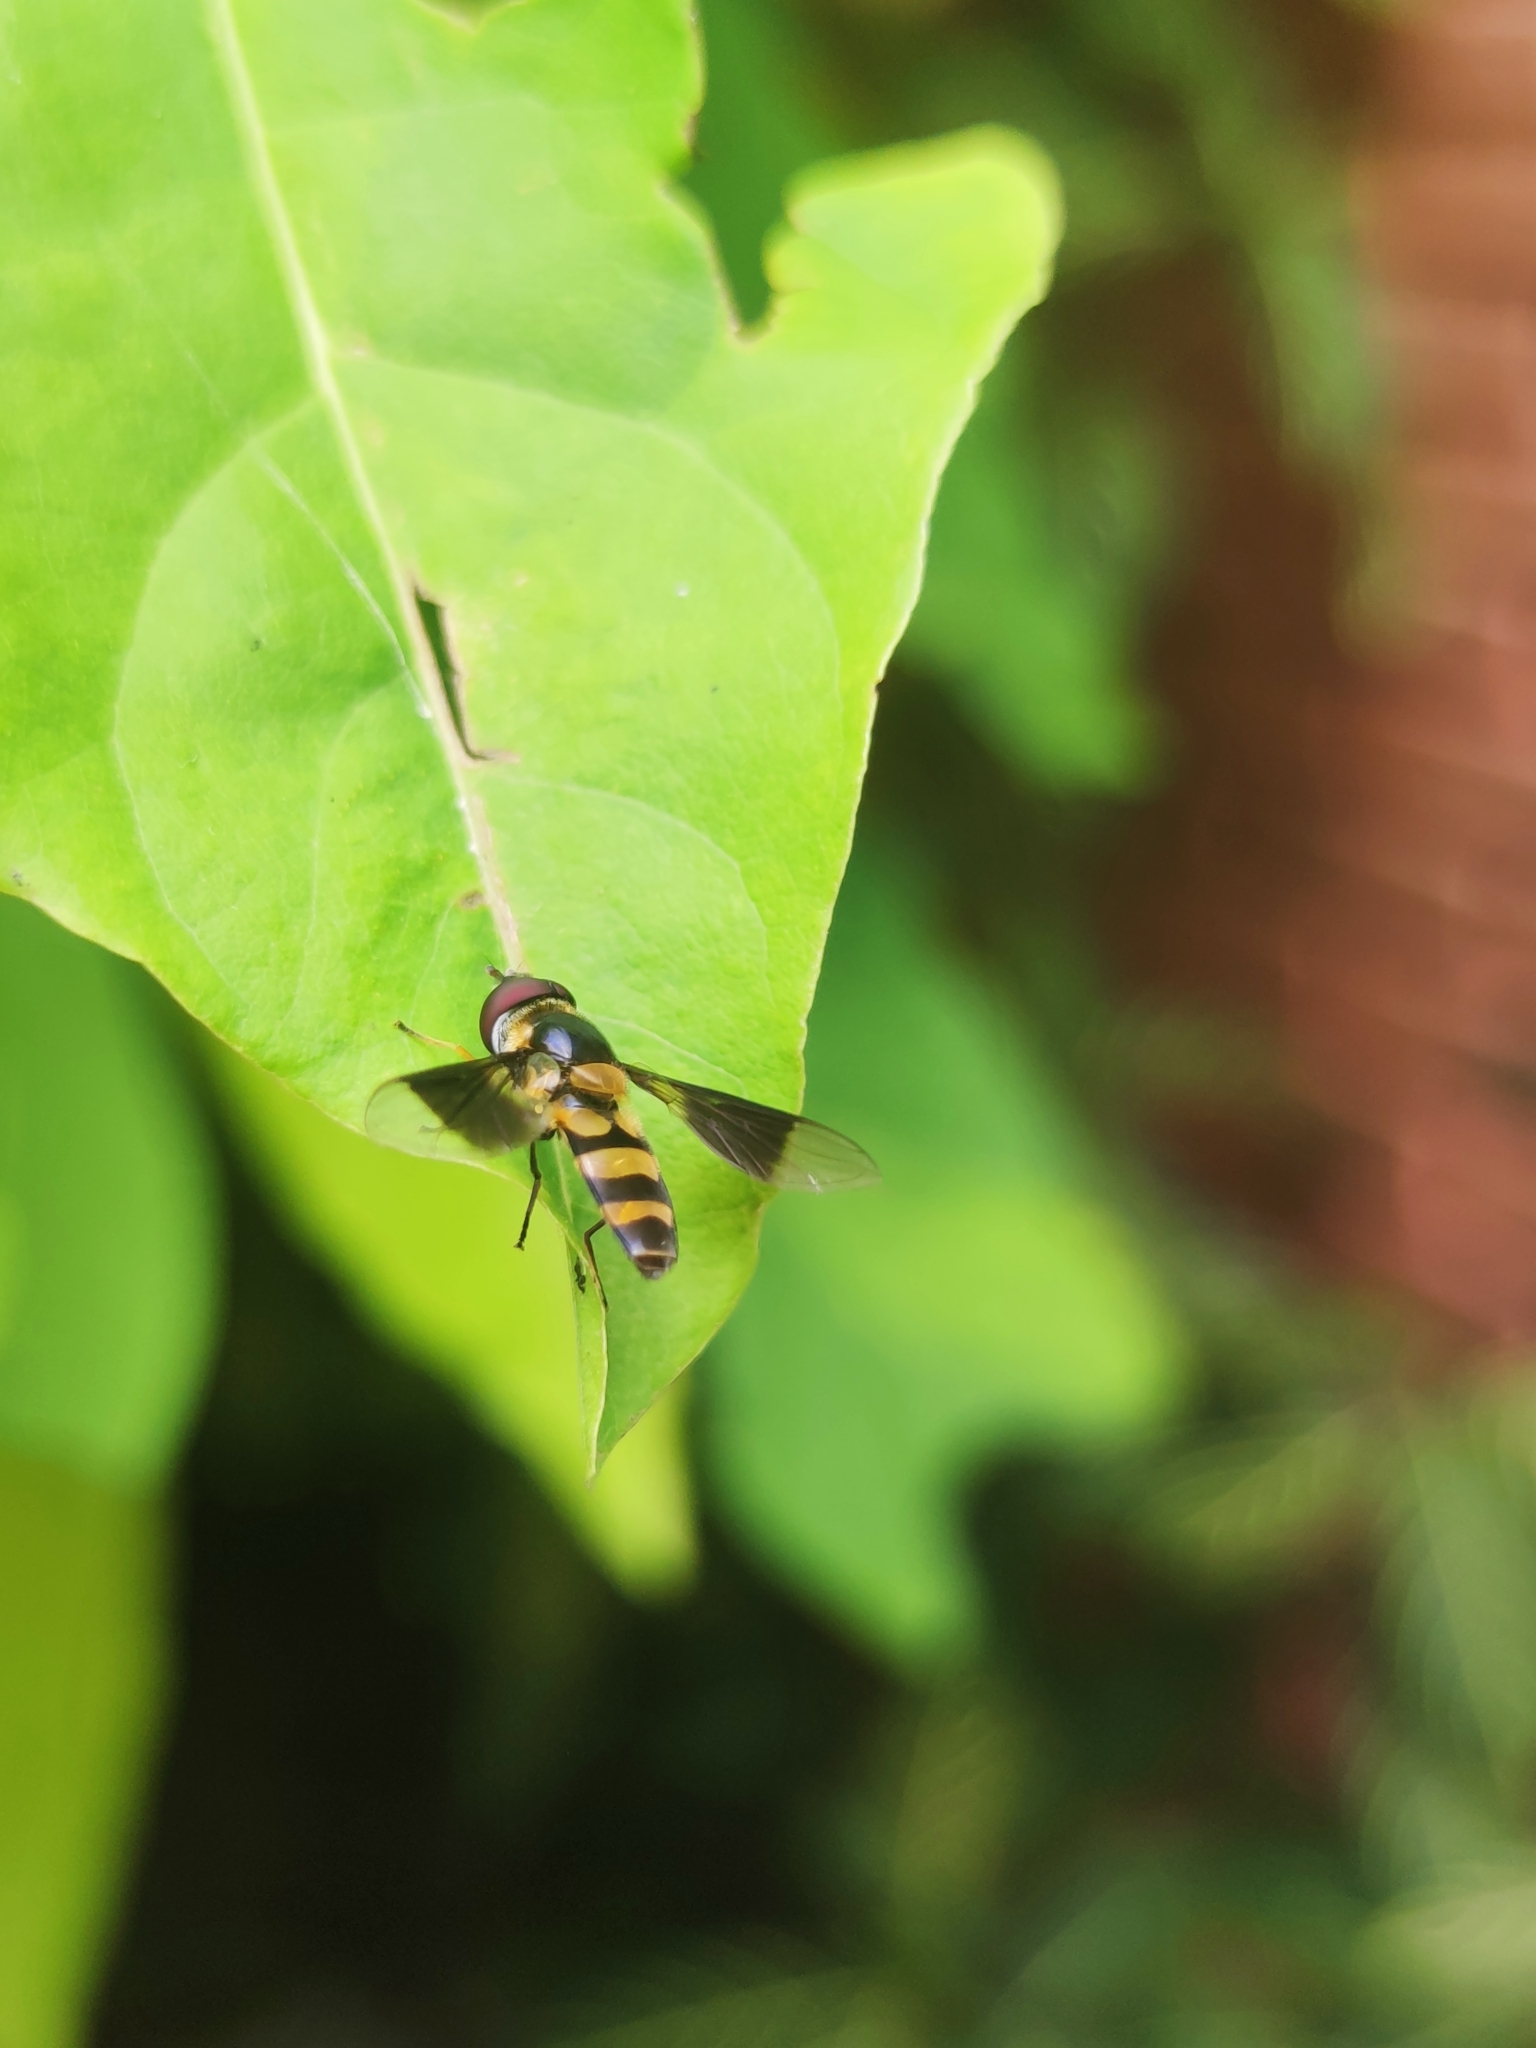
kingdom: Animalia
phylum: Arthropoda
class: Insecta
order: Diptera
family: Syrphidae
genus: Dideopsis
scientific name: Dideopsis aegrota
